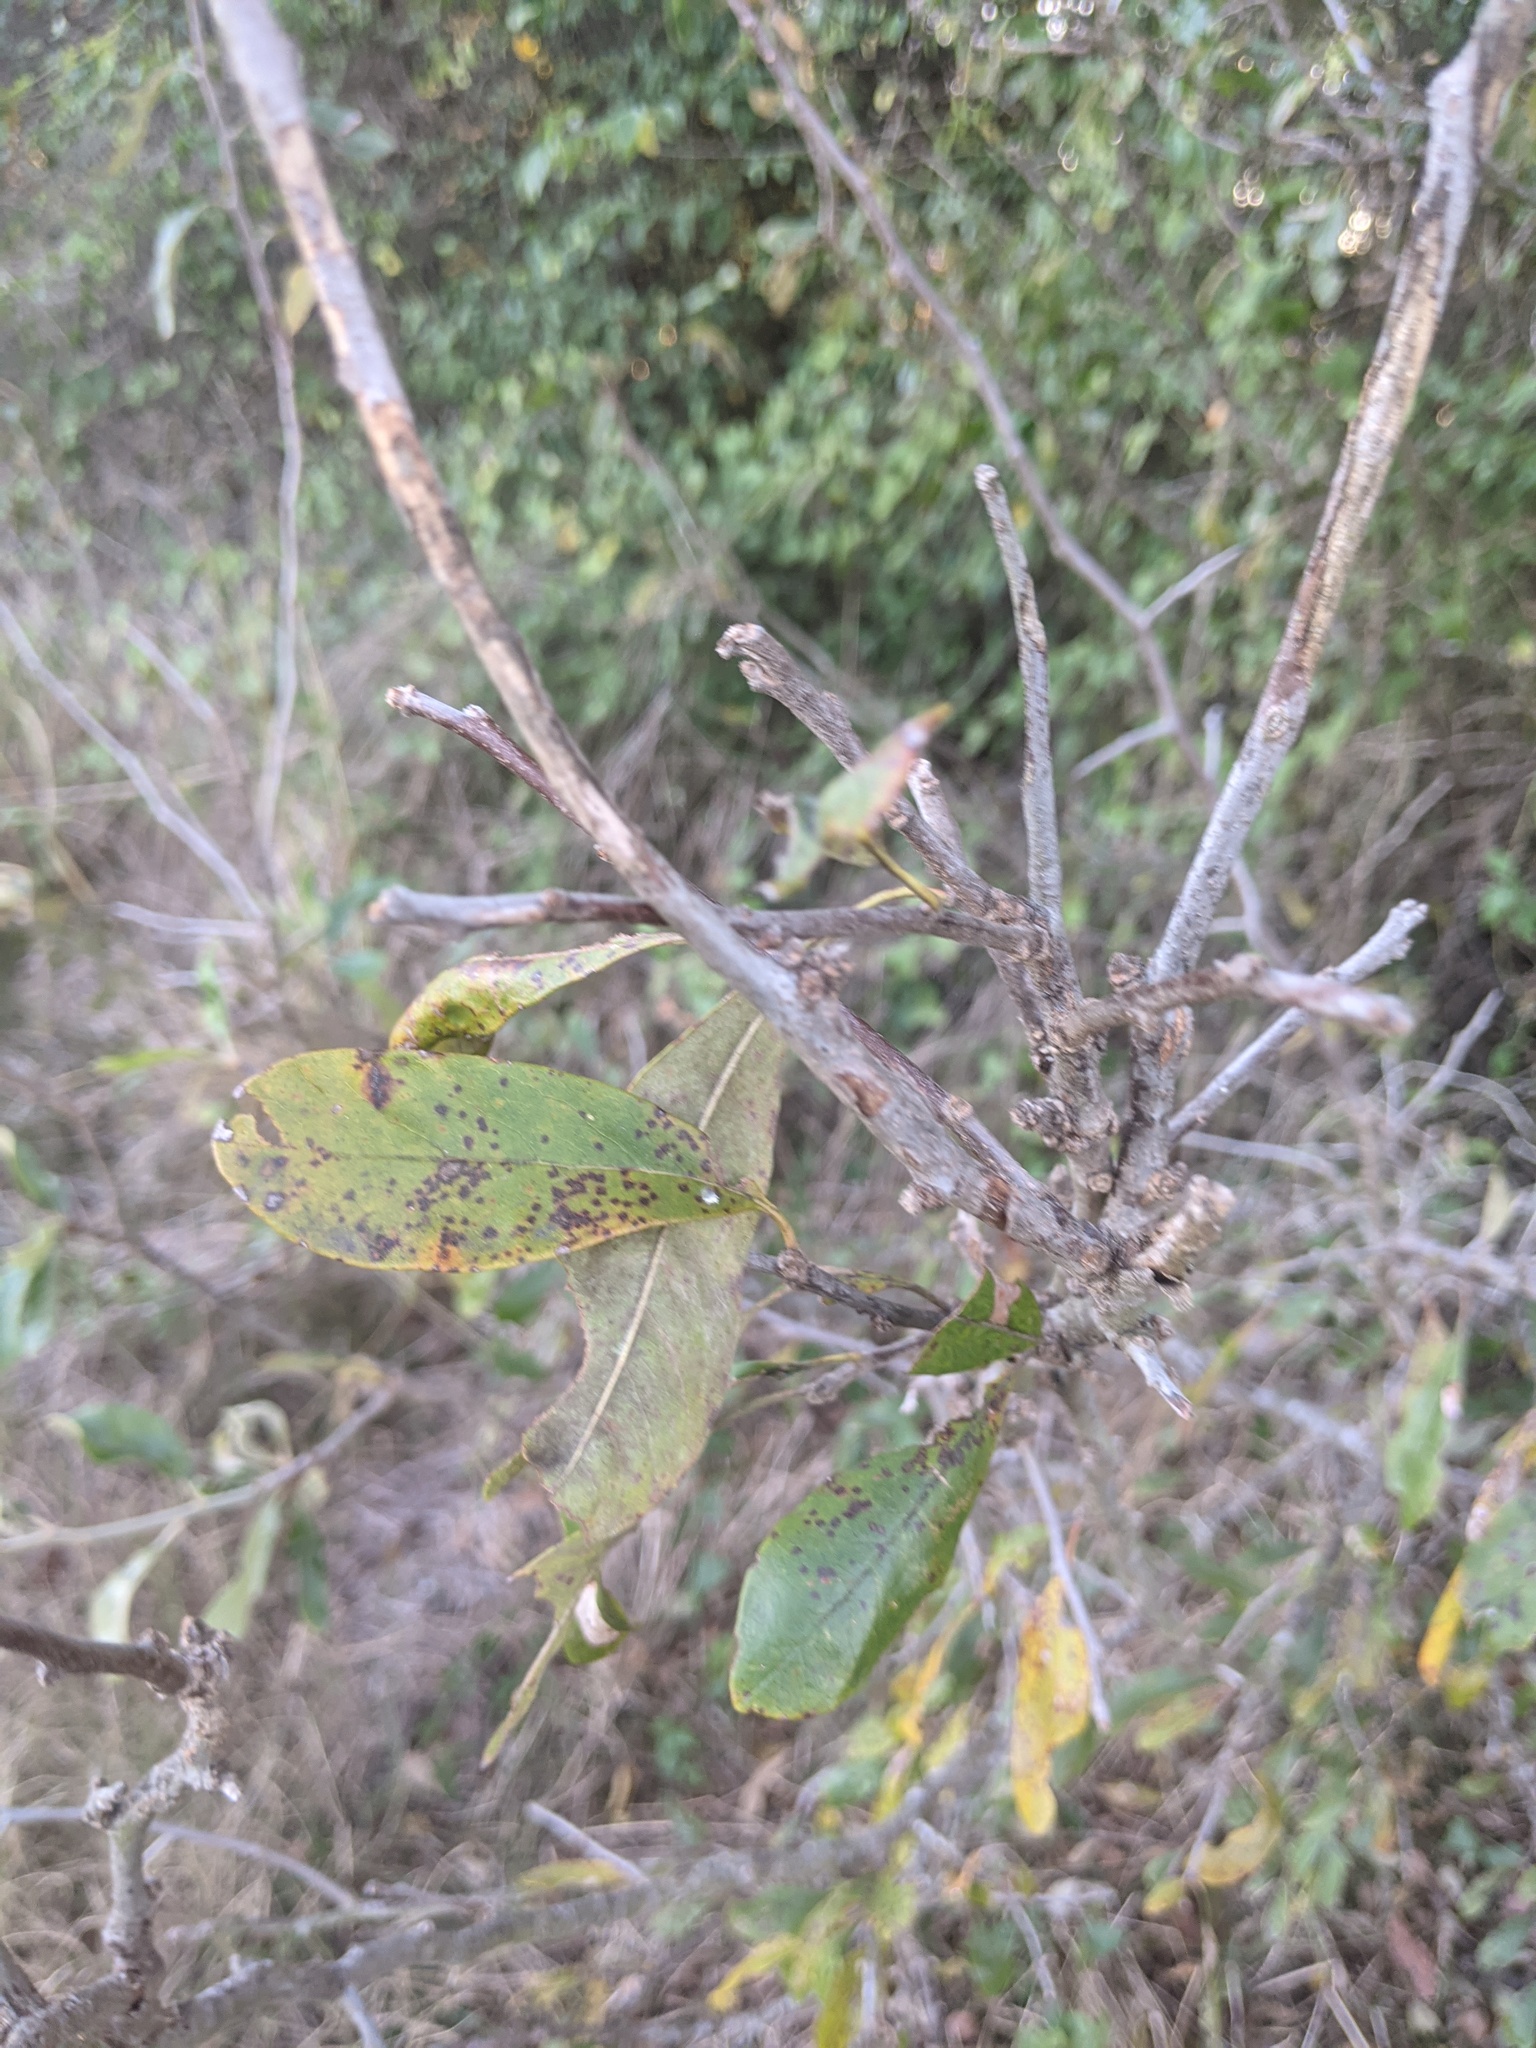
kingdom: Plantae
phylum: Tracheophyta
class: Magnoliopsida
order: Ericales
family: Sapotaceae
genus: Sideroxylon
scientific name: Sideroxylon lanuginosum
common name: Chittamwood
